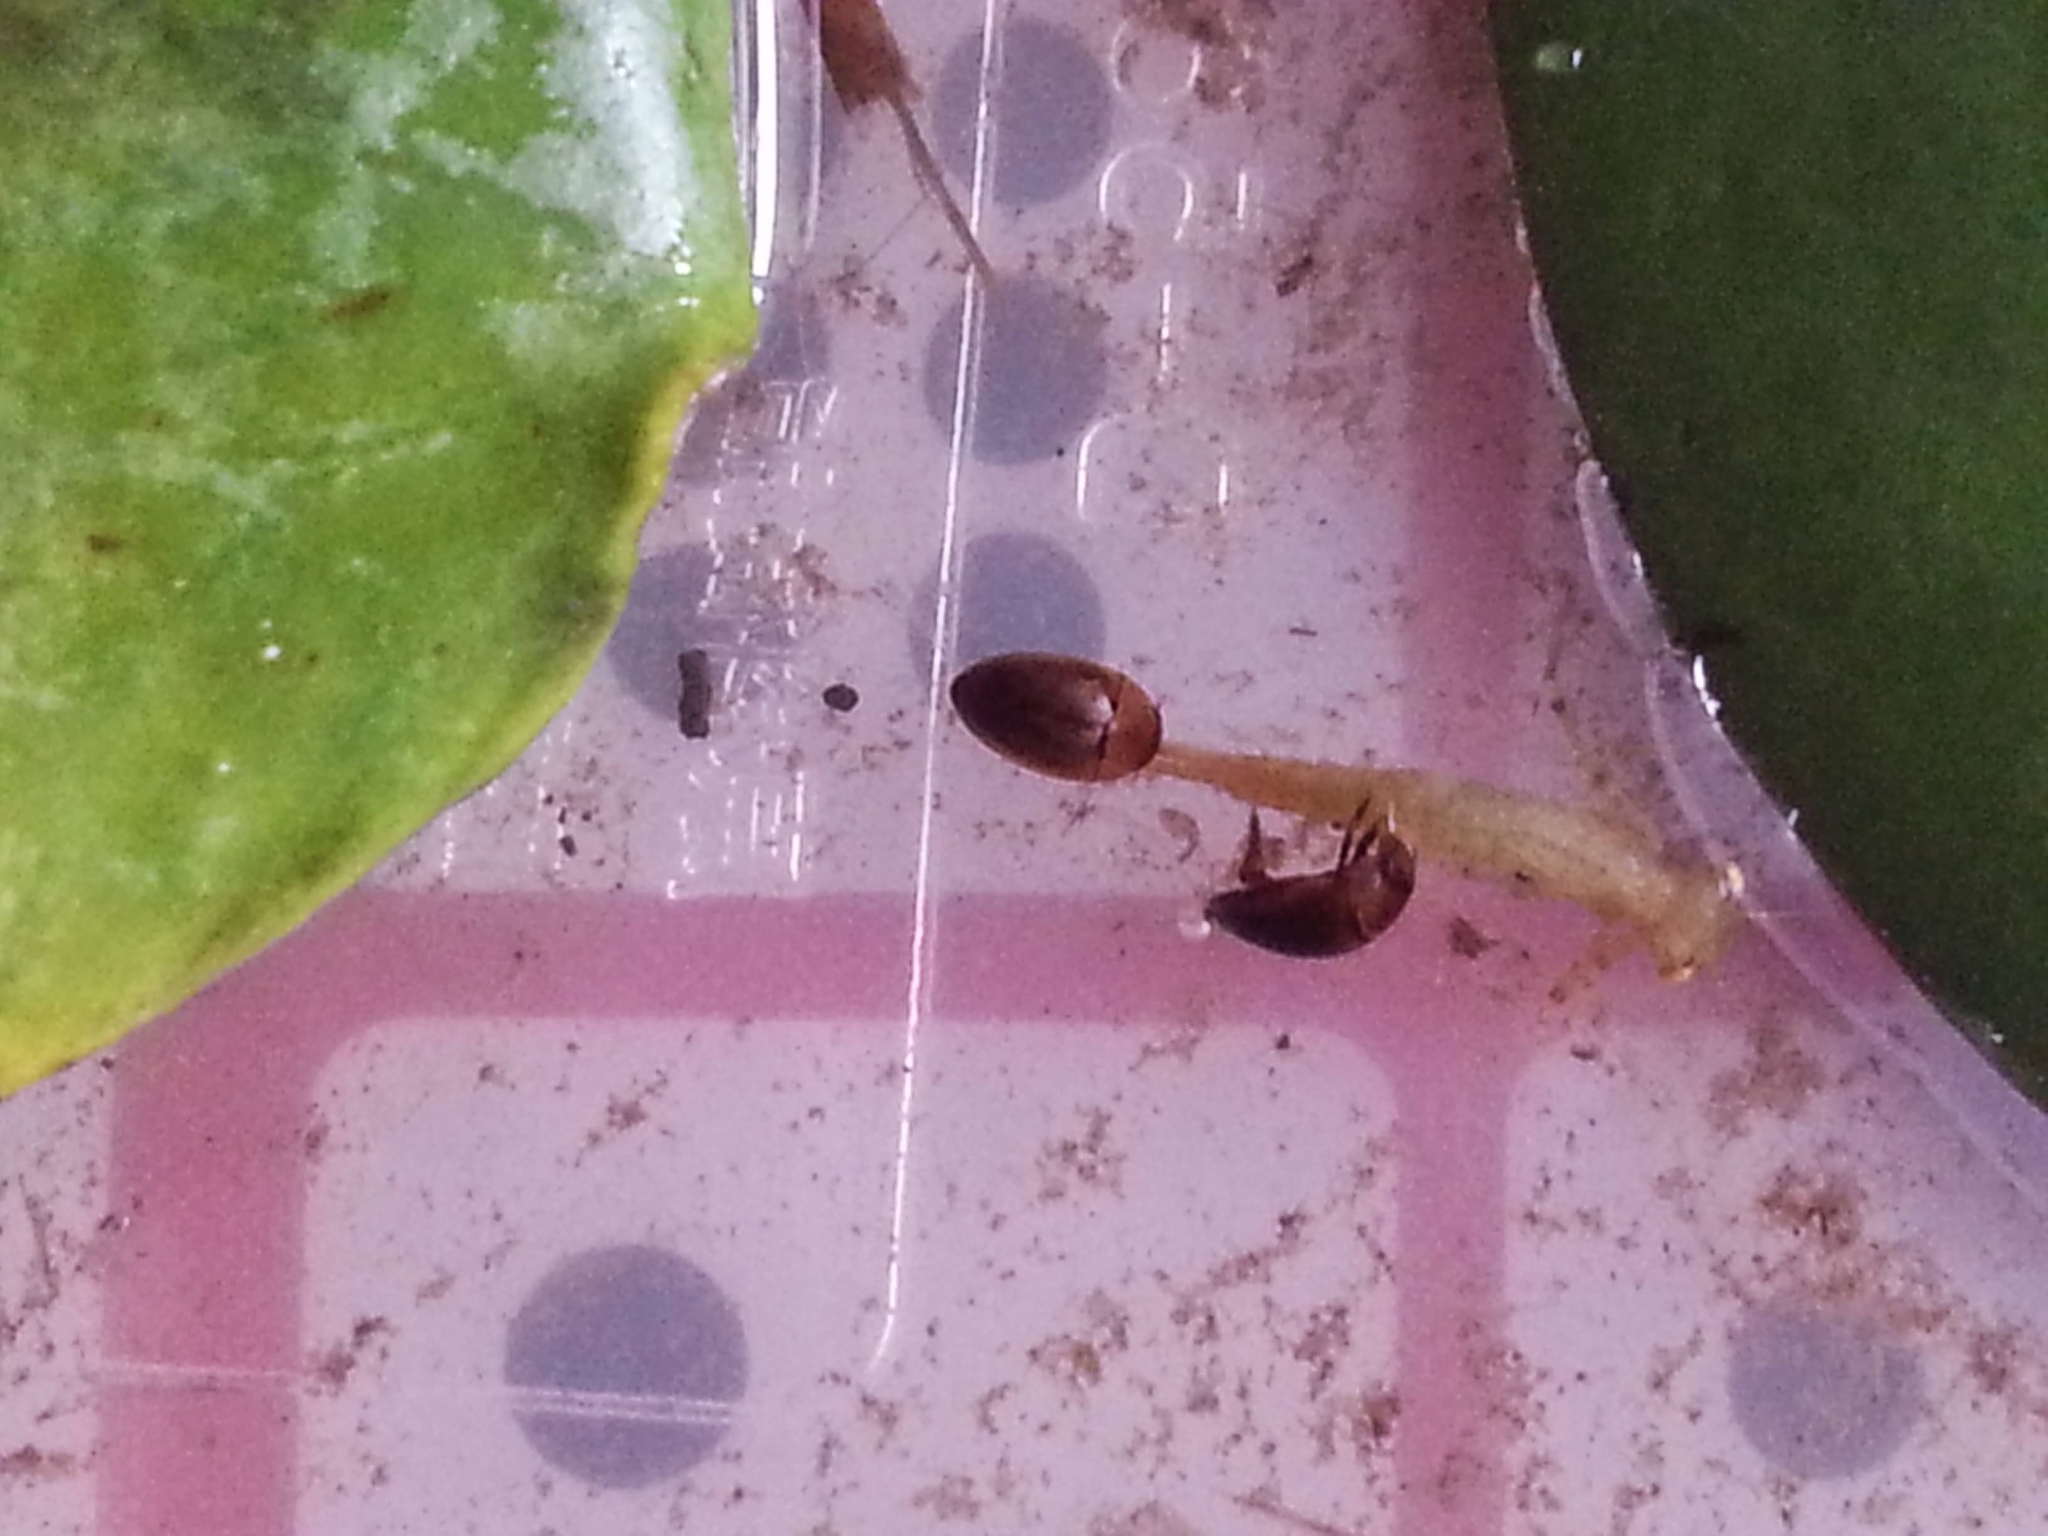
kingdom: Animalia
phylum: Arthropoda
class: Insecta
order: Coleoptera
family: Noteridae
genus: Noterus
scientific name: Noterus japonicus
